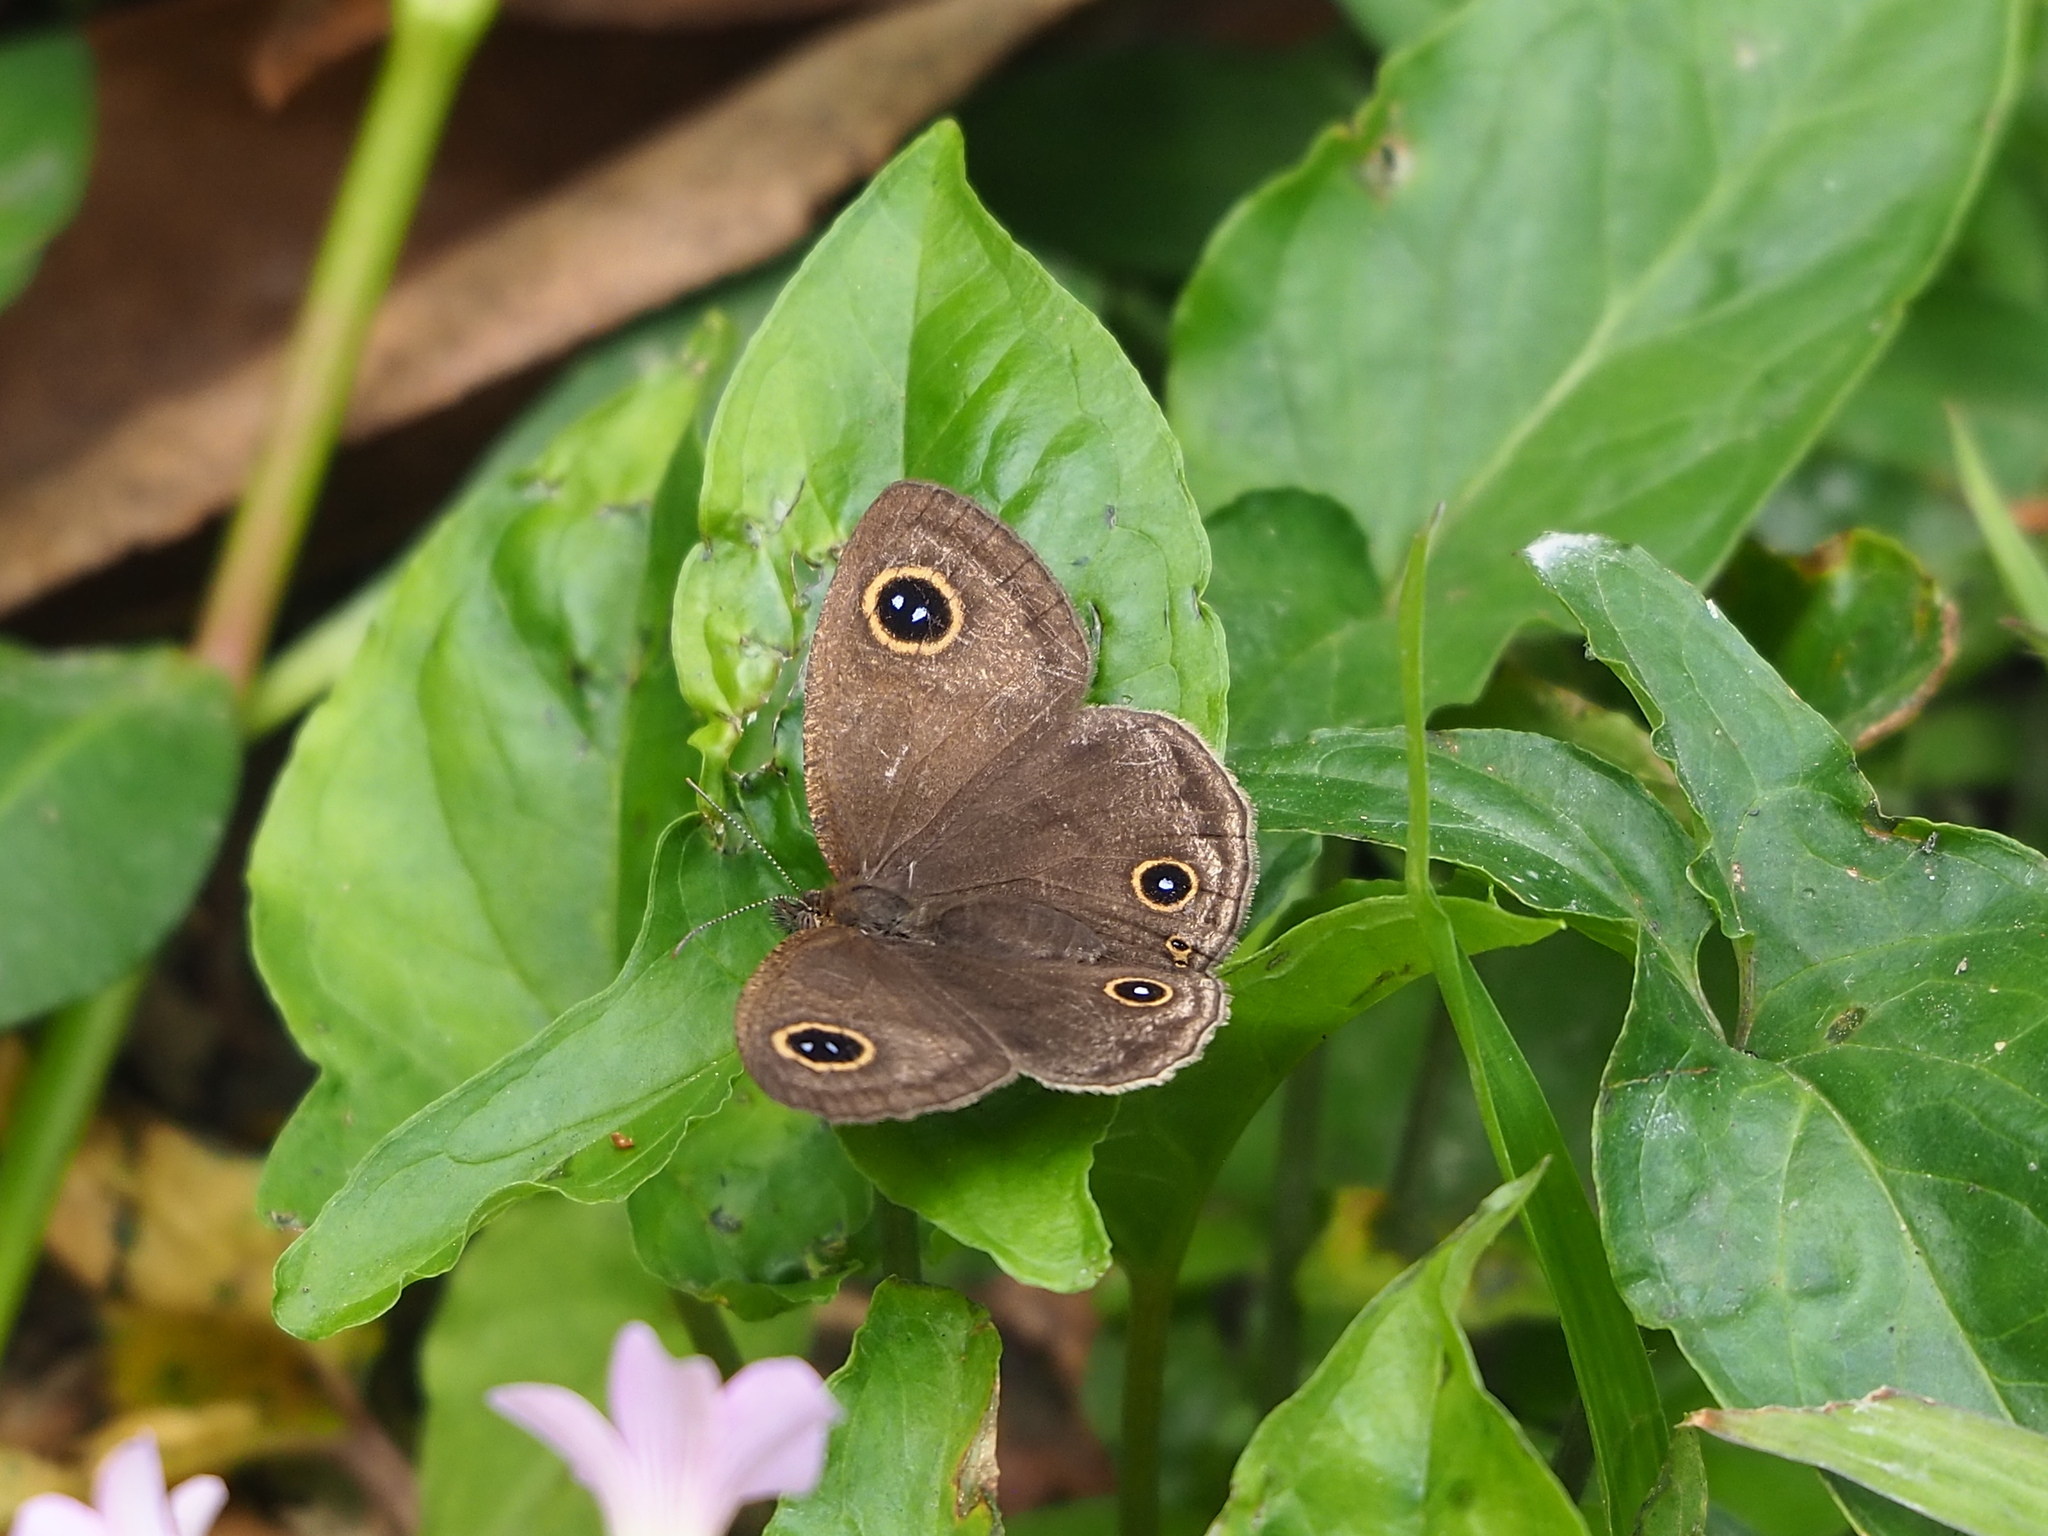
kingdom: Animalia
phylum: Arthropoda
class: Insecta
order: Lepidoptera
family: Nymphalidae
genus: Ypthima
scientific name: Ypthima multistriata
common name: Striated ringlet
